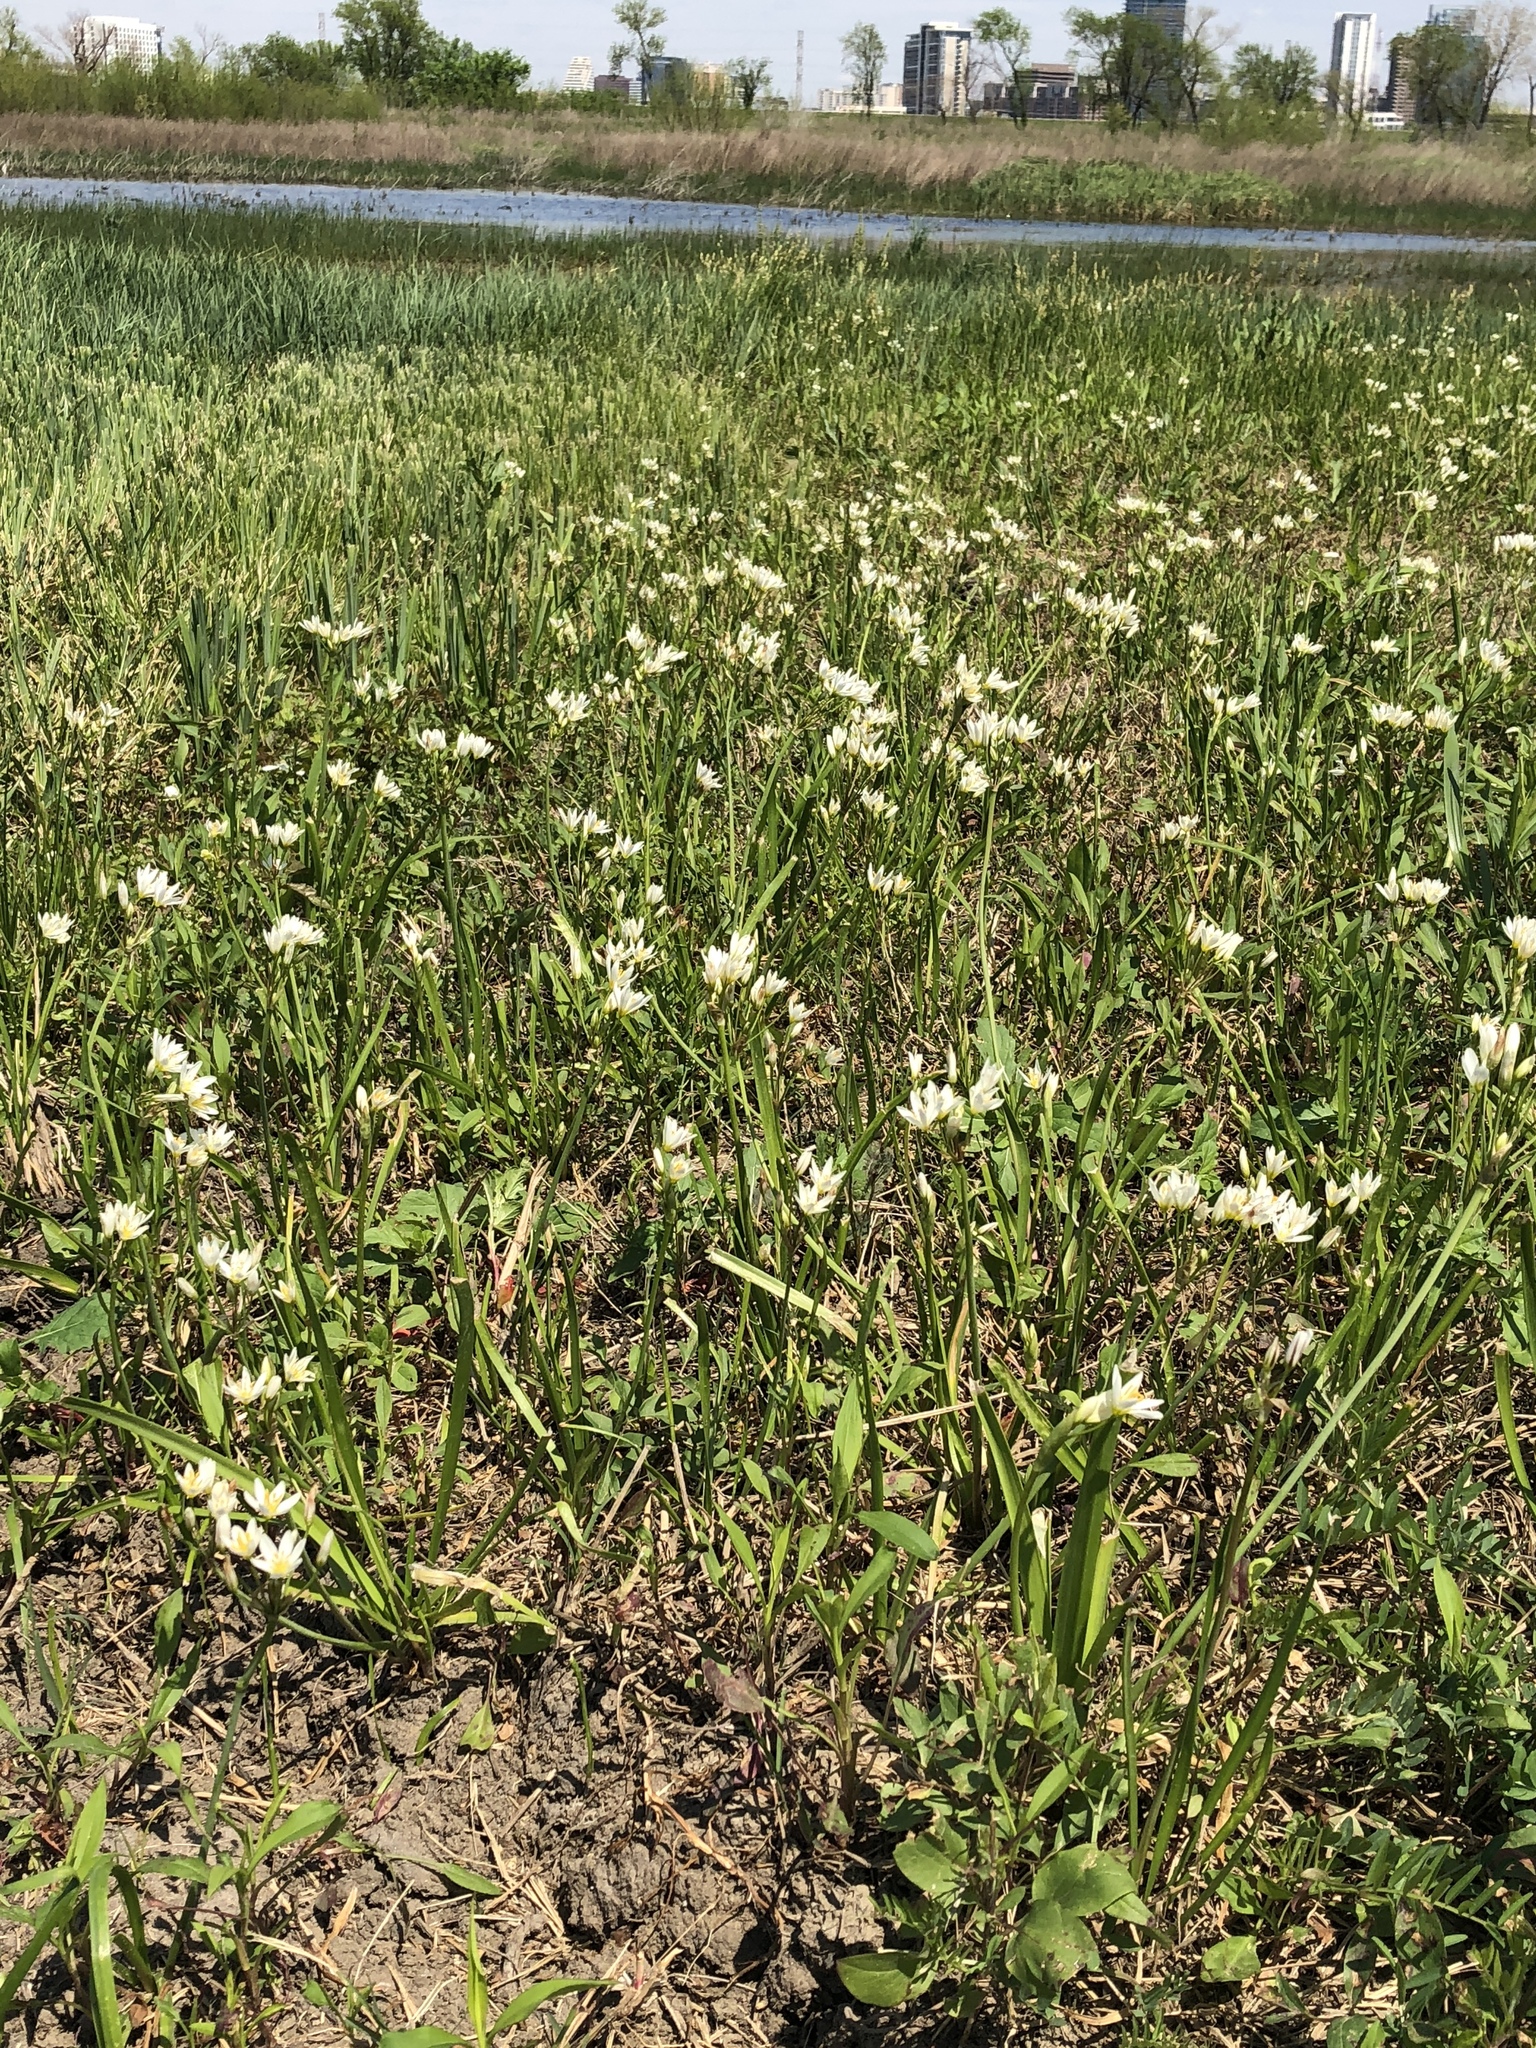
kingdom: Plantae
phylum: Tracheophyta
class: Liliopsida
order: Asparagales
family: Amaryllidaceae
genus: Nothoscordum
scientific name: Nothoscordum bivalve
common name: Crow-poison
